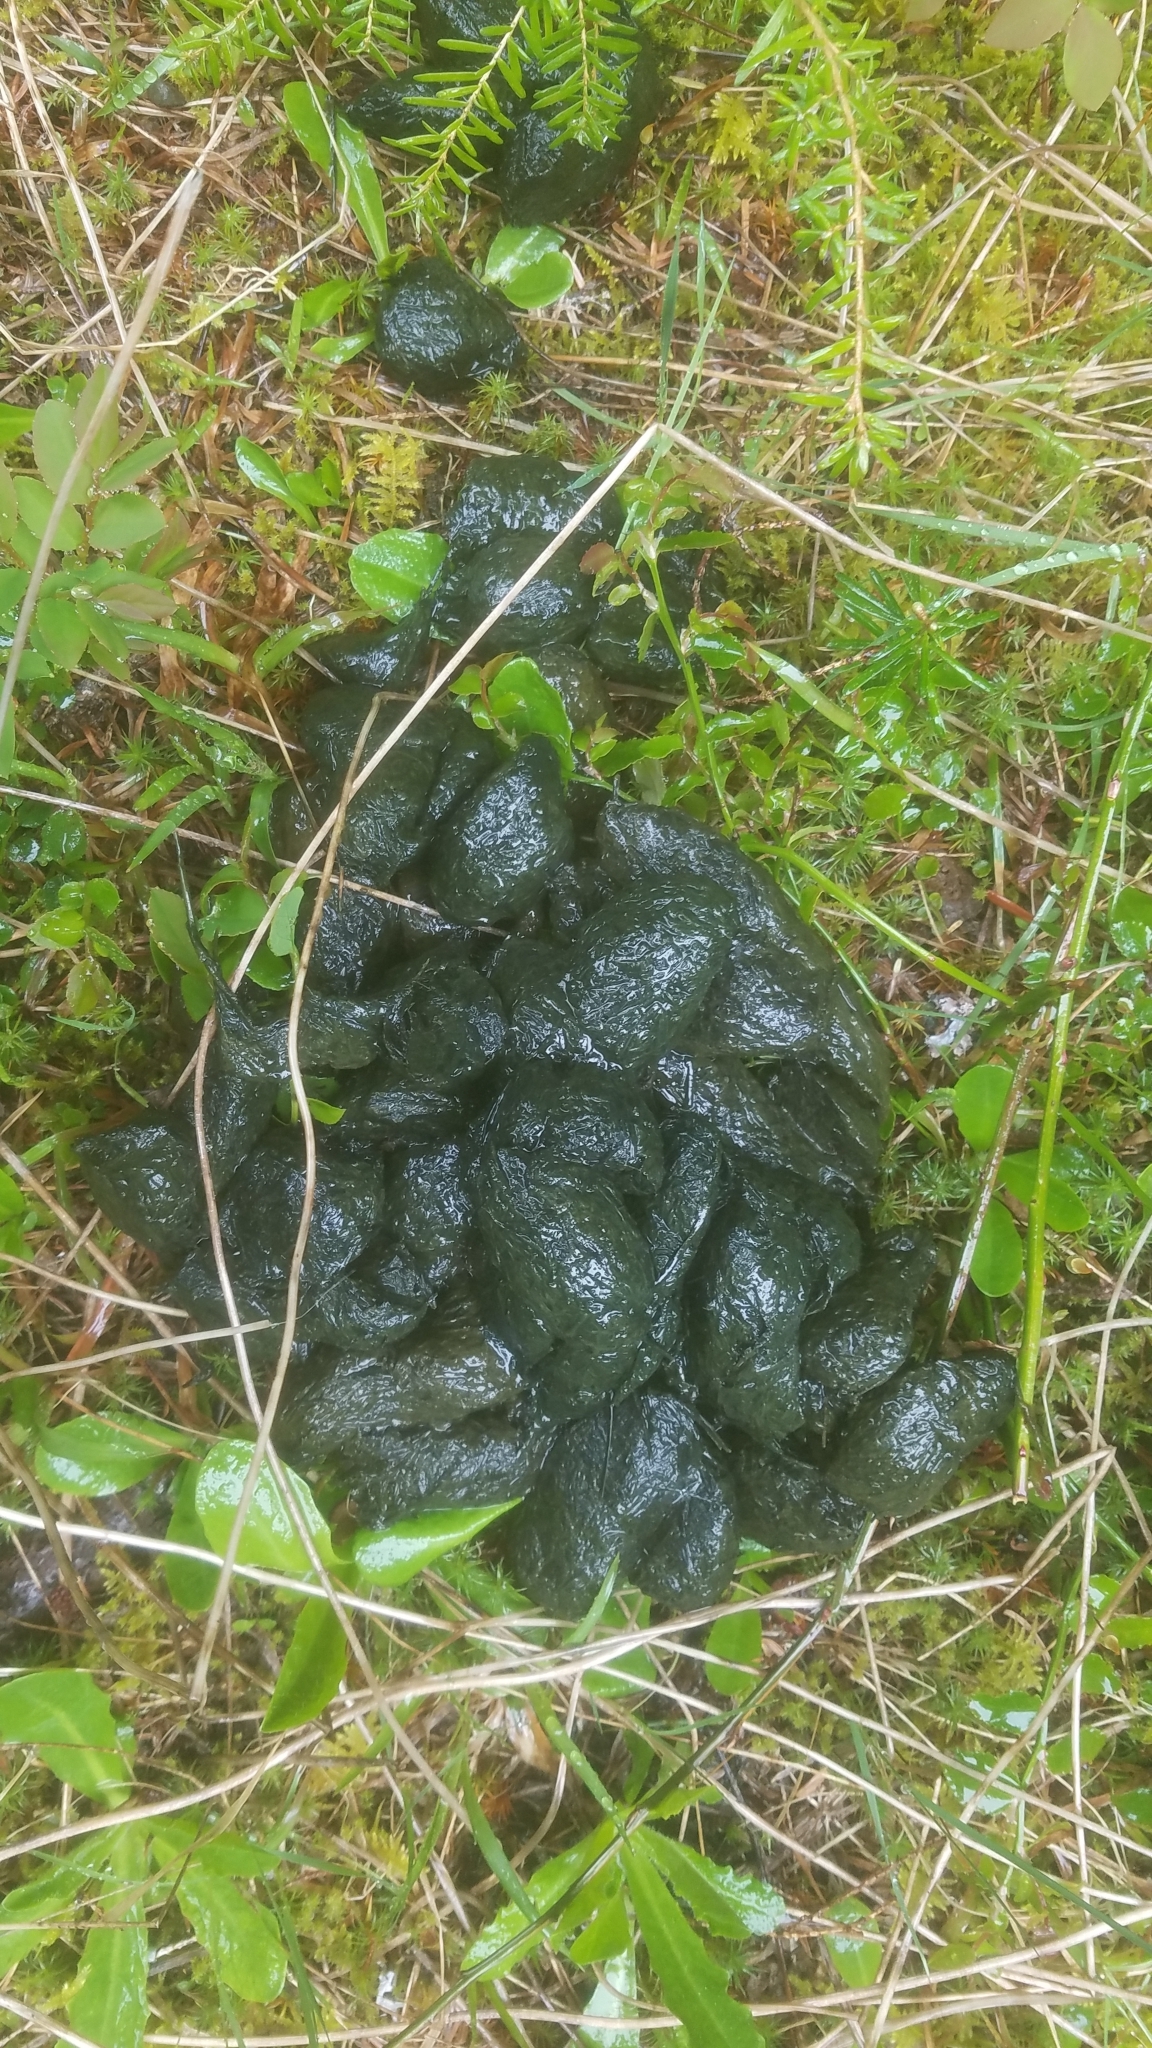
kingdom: Animalia
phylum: Chordata
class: Mammalia
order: Carnivora
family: Ursidae
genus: Ursus
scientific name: Ursus americanus
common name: American black bear
